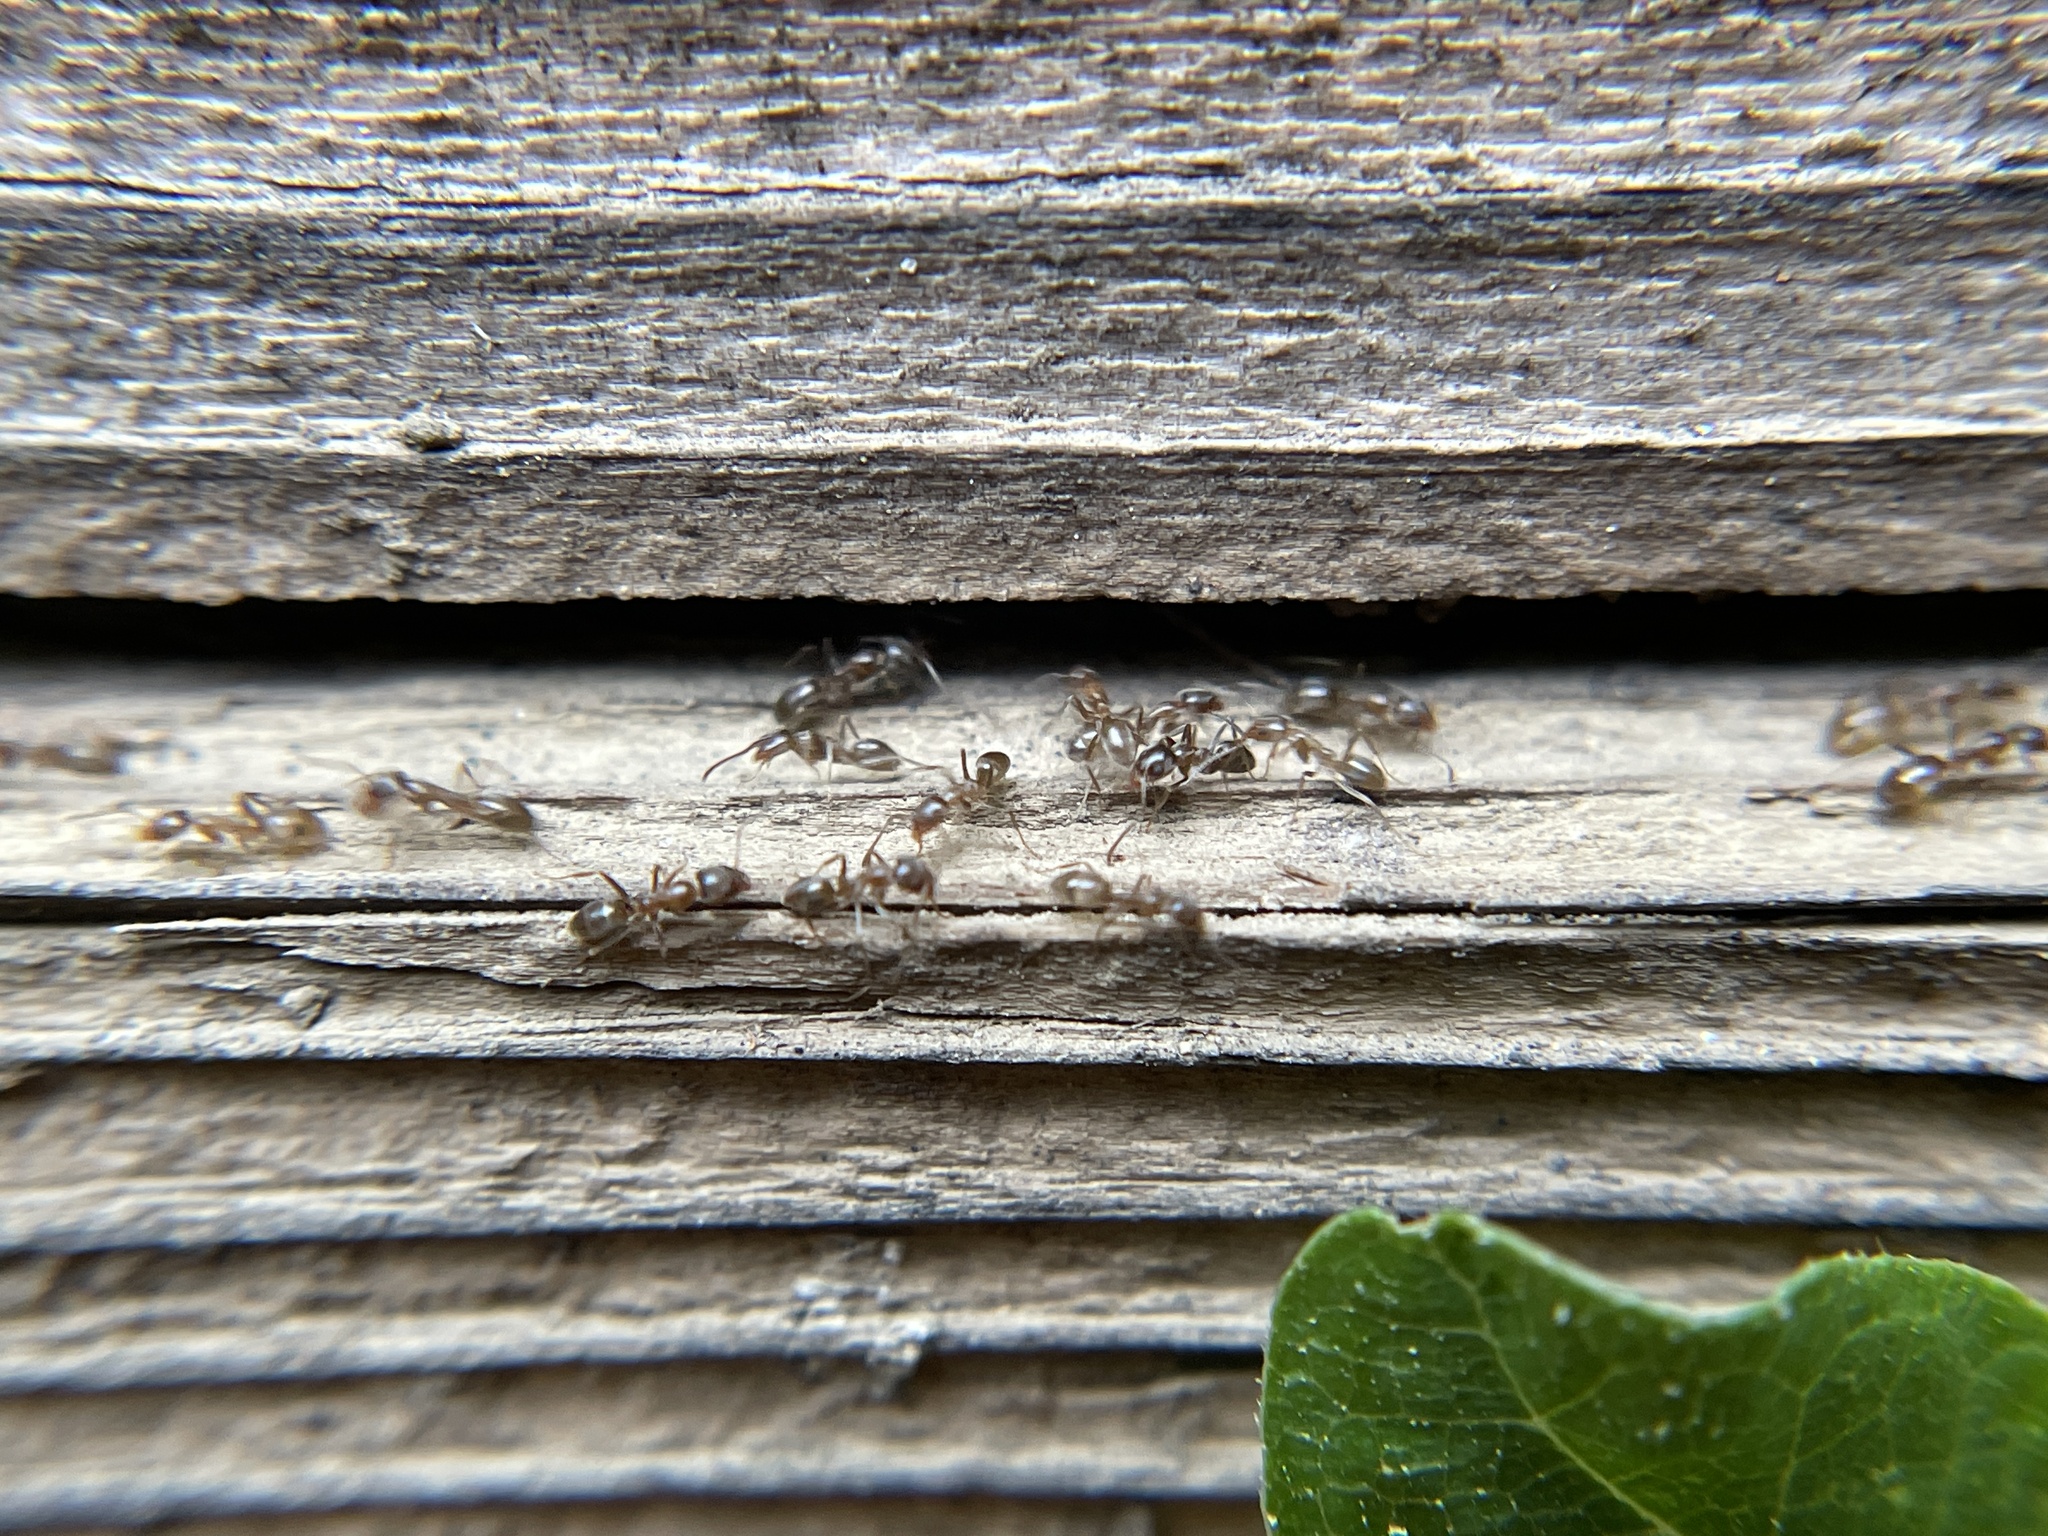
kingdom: Animalia
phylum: Arthropoda
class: Insecta
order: Hymenoptera
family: Formicidae
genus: Linepithema
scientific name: Linepithema humile
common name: Argentine ant
